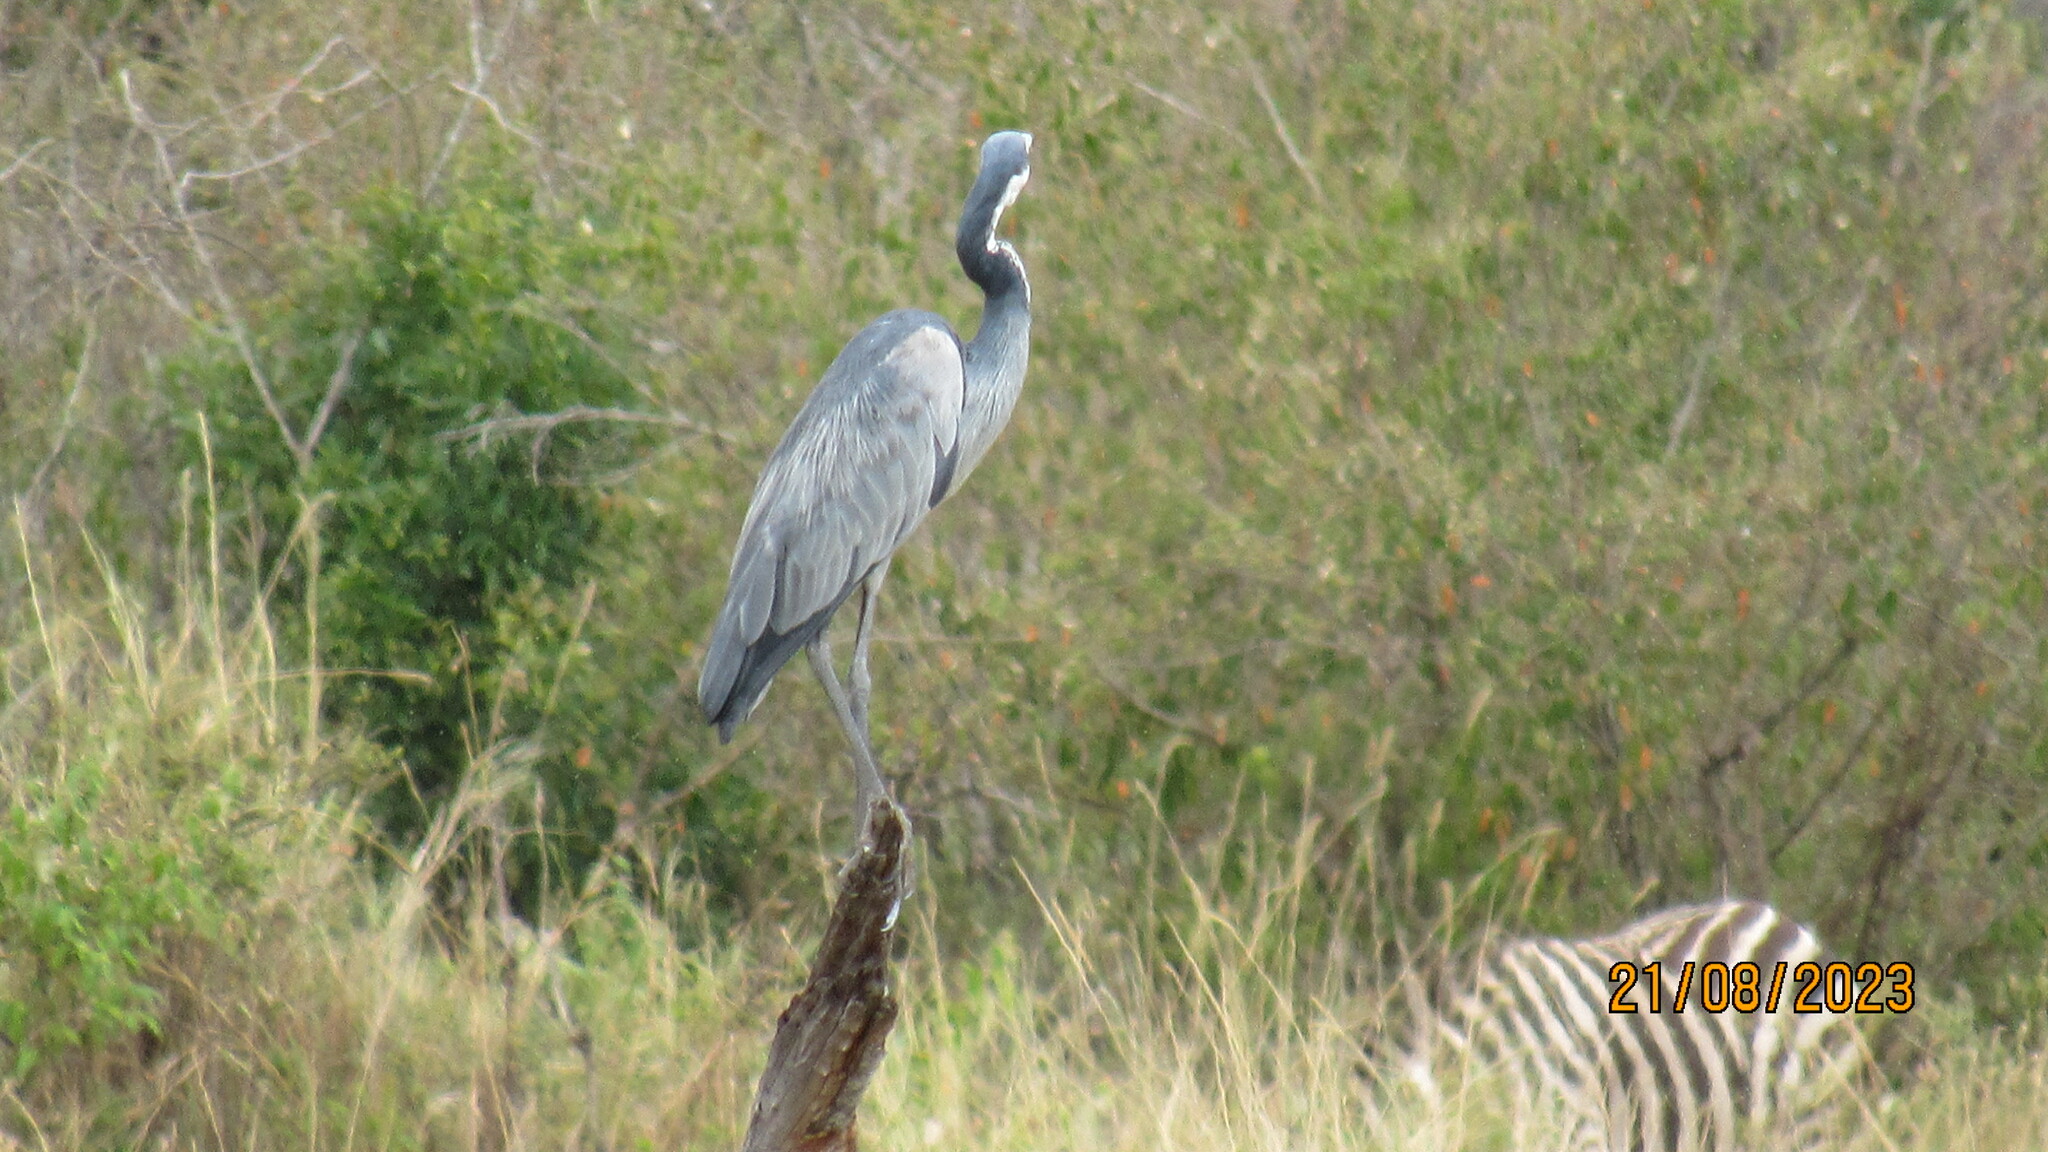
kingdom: Animalia
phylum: Chordata
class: Aves
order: Pelecaniformes
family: Ardeidae
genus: Ardea
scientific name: Ardea melanocephala
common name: Black-headed heron
